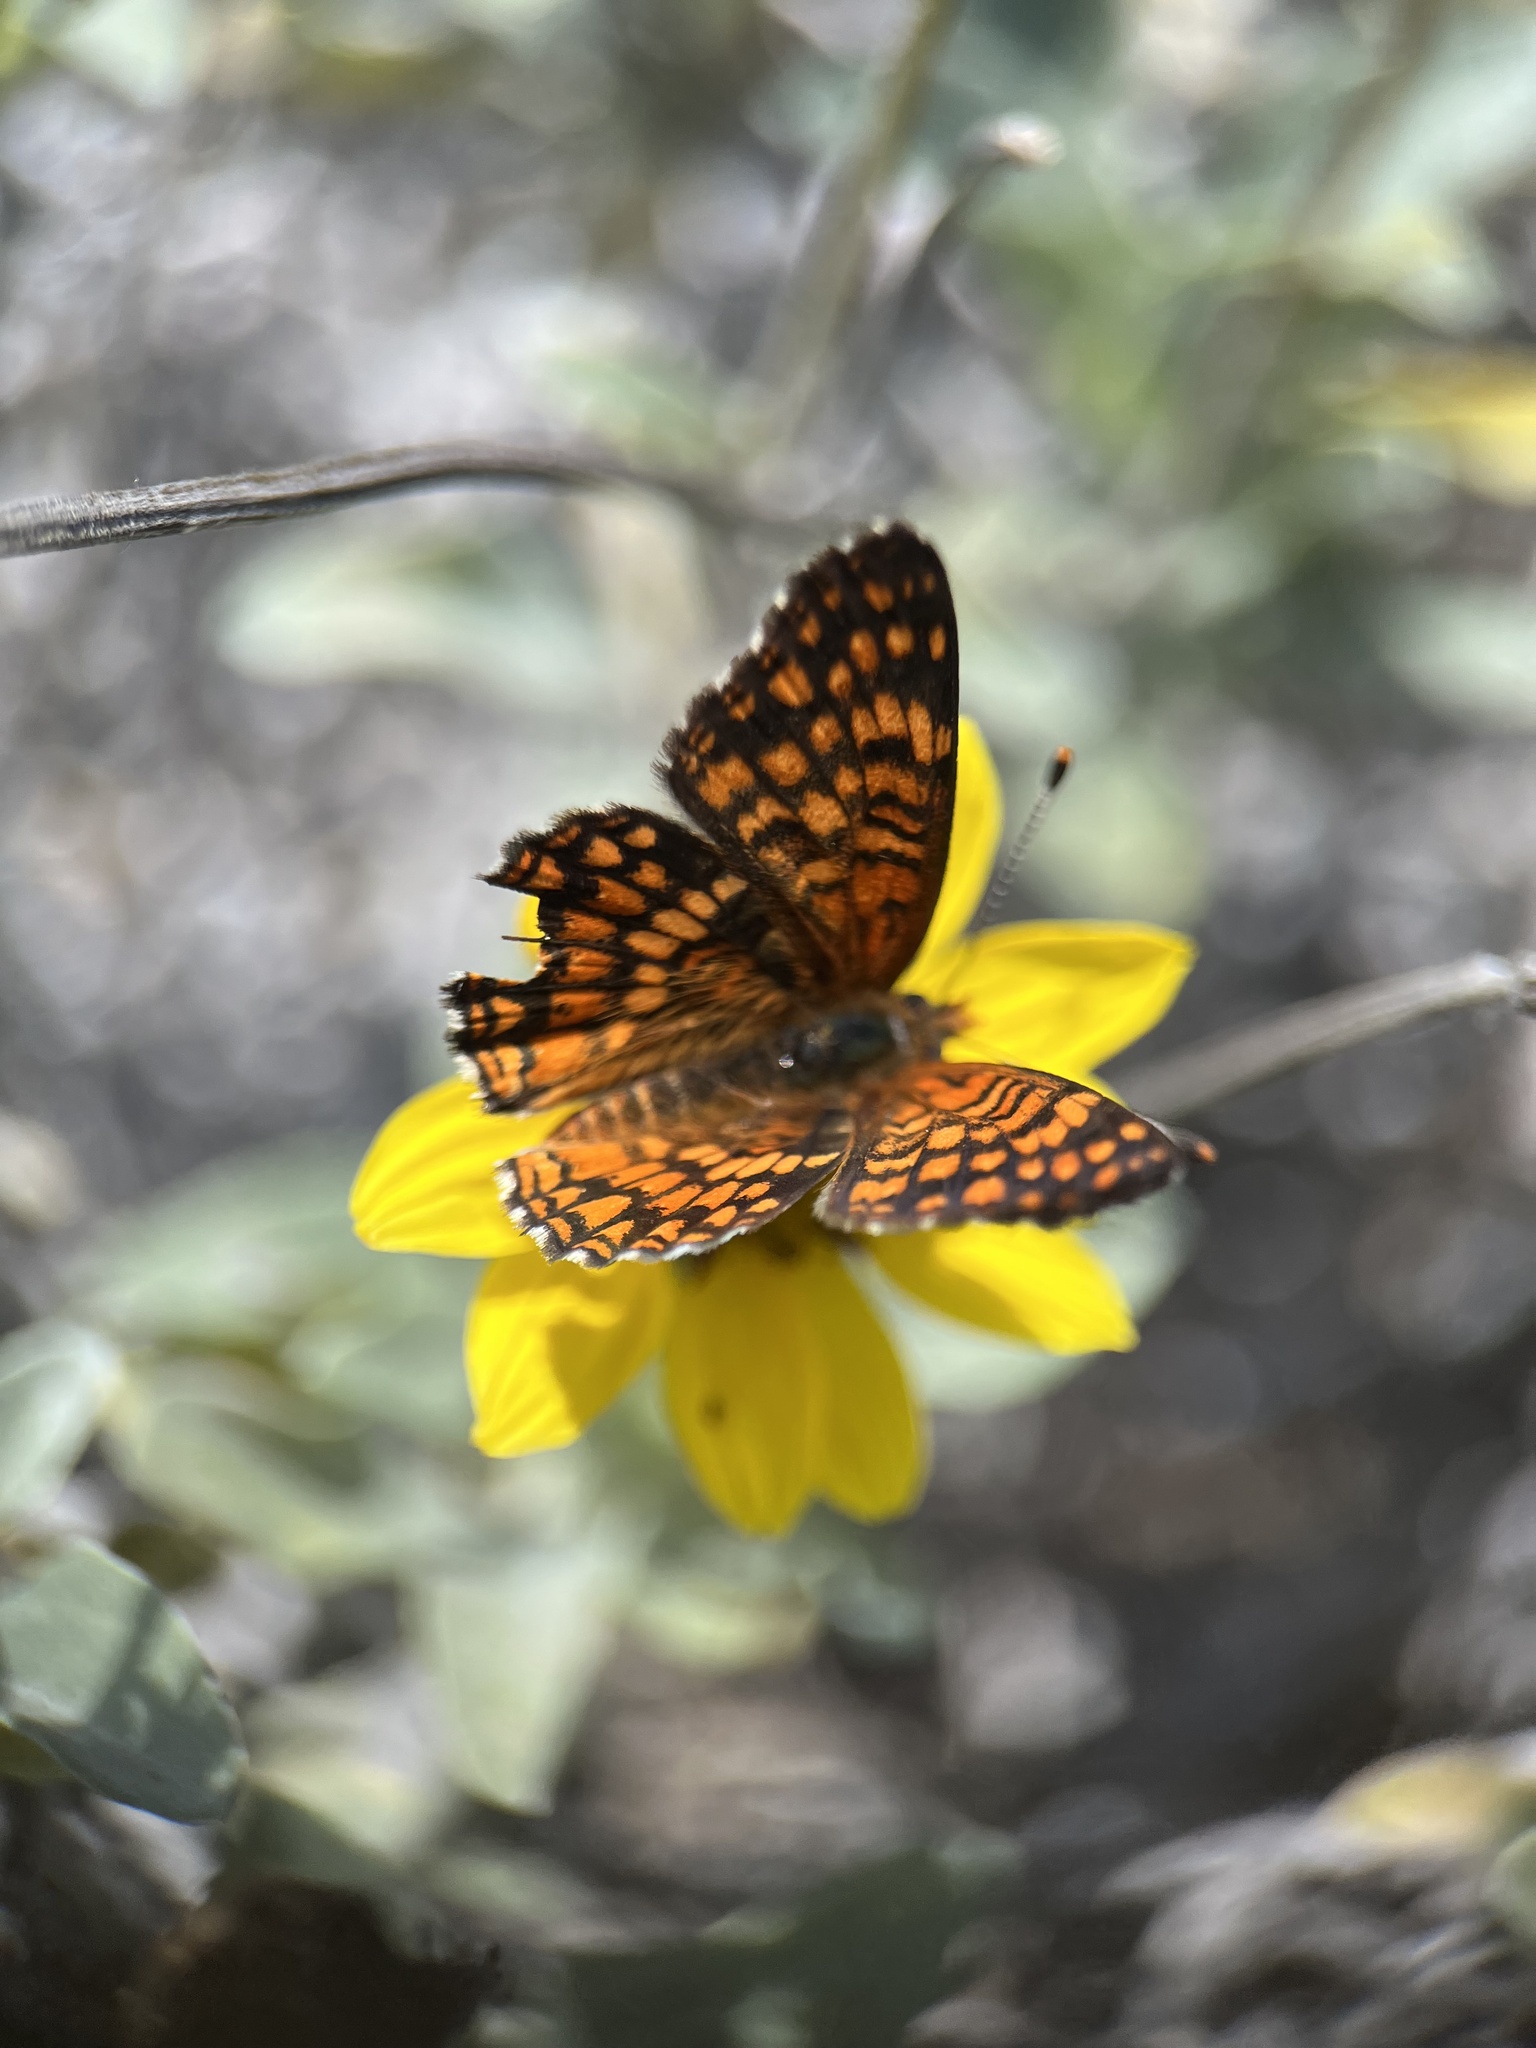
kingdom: Animalia
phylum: Arthropoda
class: Insecta
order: Lepidoptera
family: Nymphalidae
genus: Chlosyne
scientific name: Chlosyne gabbii
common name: Gabb's checkerspot
